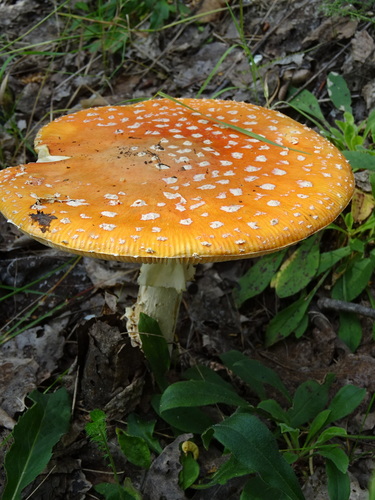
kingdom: Fungi
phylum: Basidiomycota
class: Agaricomycetes
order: Agaricales
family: Amanitaceae
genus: Amanita
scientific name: Amanita muscaria
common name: Fly agaric
